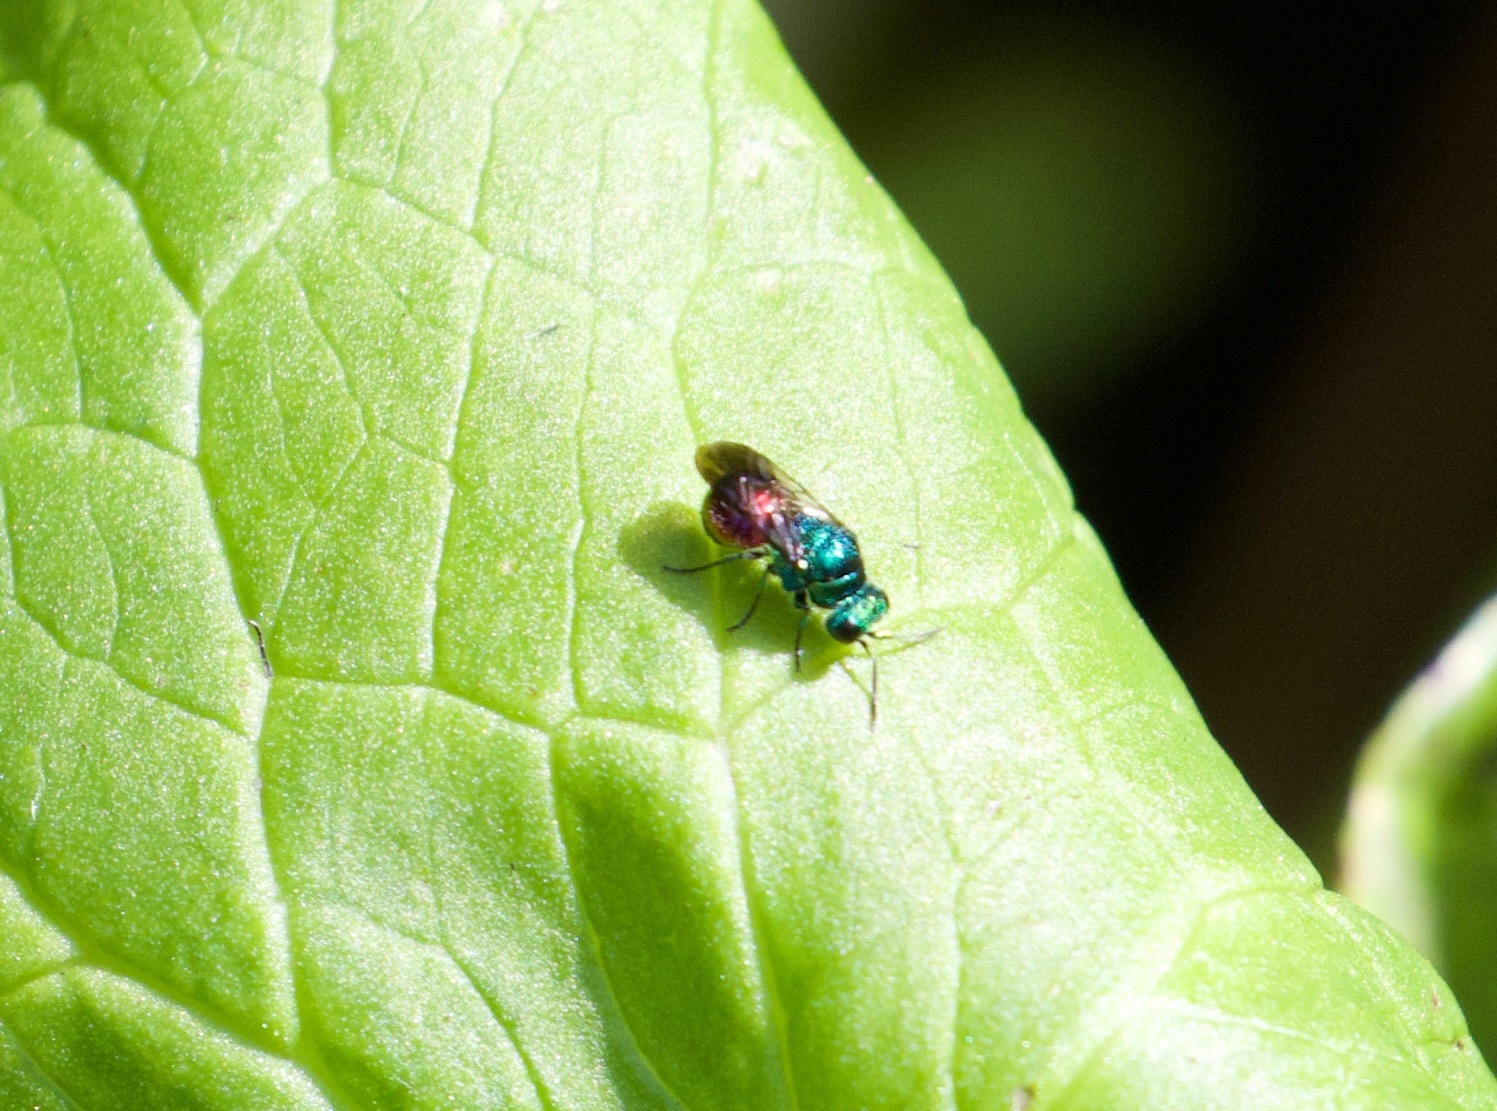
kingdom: Animalia
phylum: Arthropoda
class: Insecta
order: Hymenoptera
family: Chrysididae
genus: Pseudomalus
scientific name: Pseudomalus auratus
